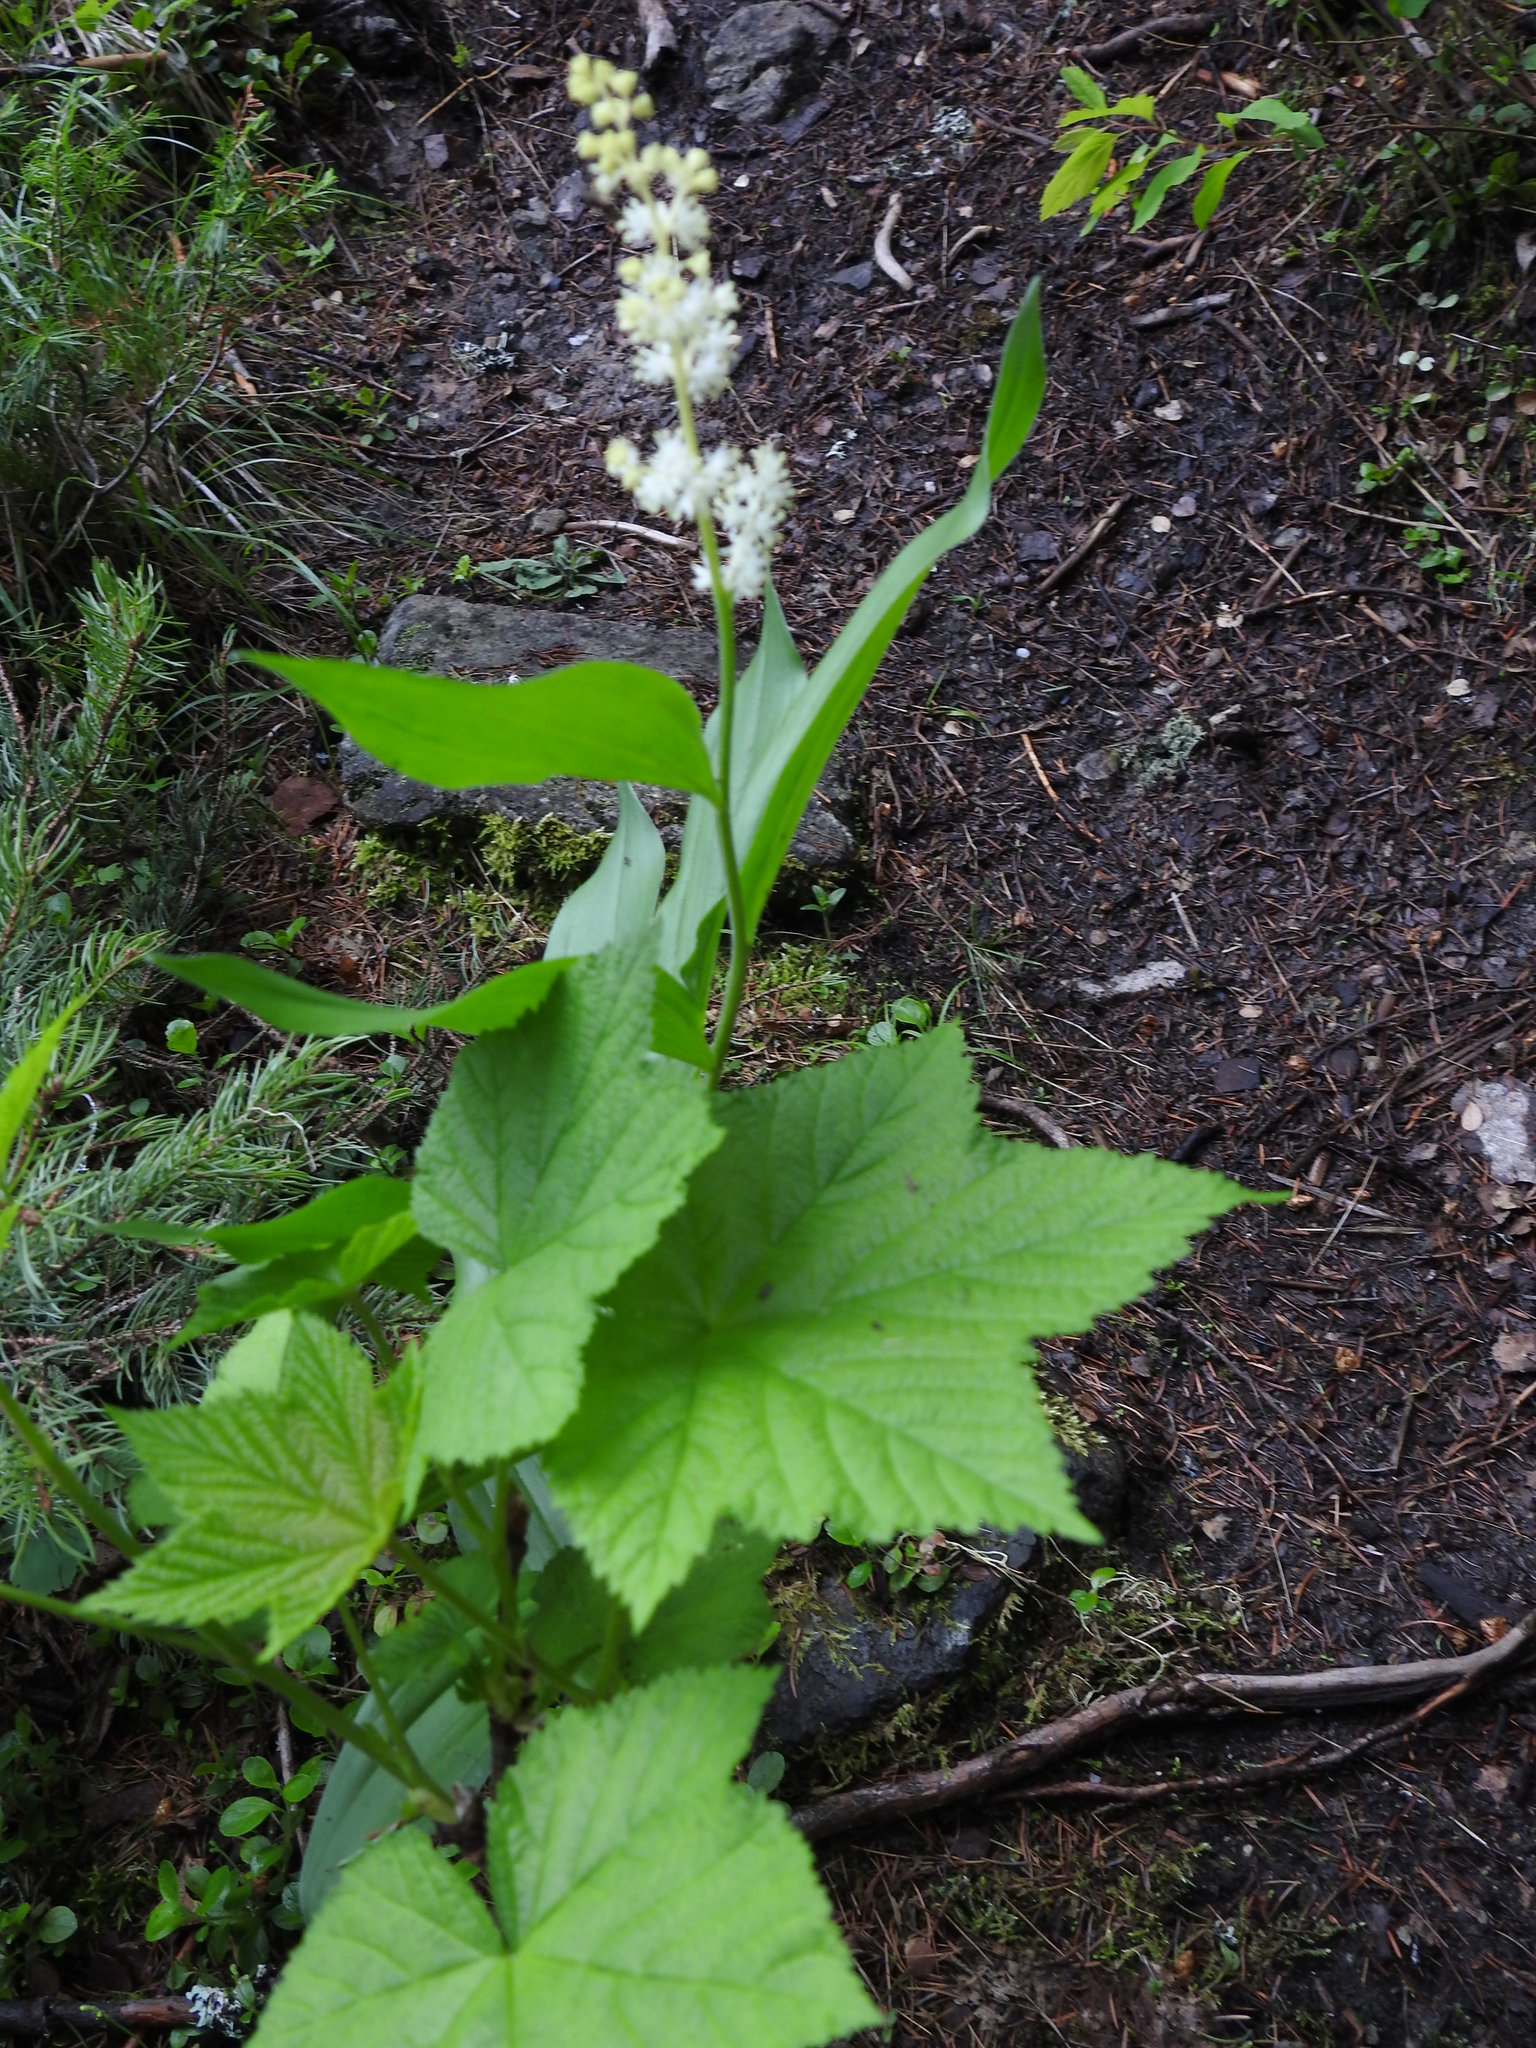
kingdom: Plantae
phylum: Tracheophyta
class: Liliopsida
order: Asparagales
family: Asparagaceae
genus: Maianthemum
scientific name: Maianthemum racemosum
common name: False spikenard
